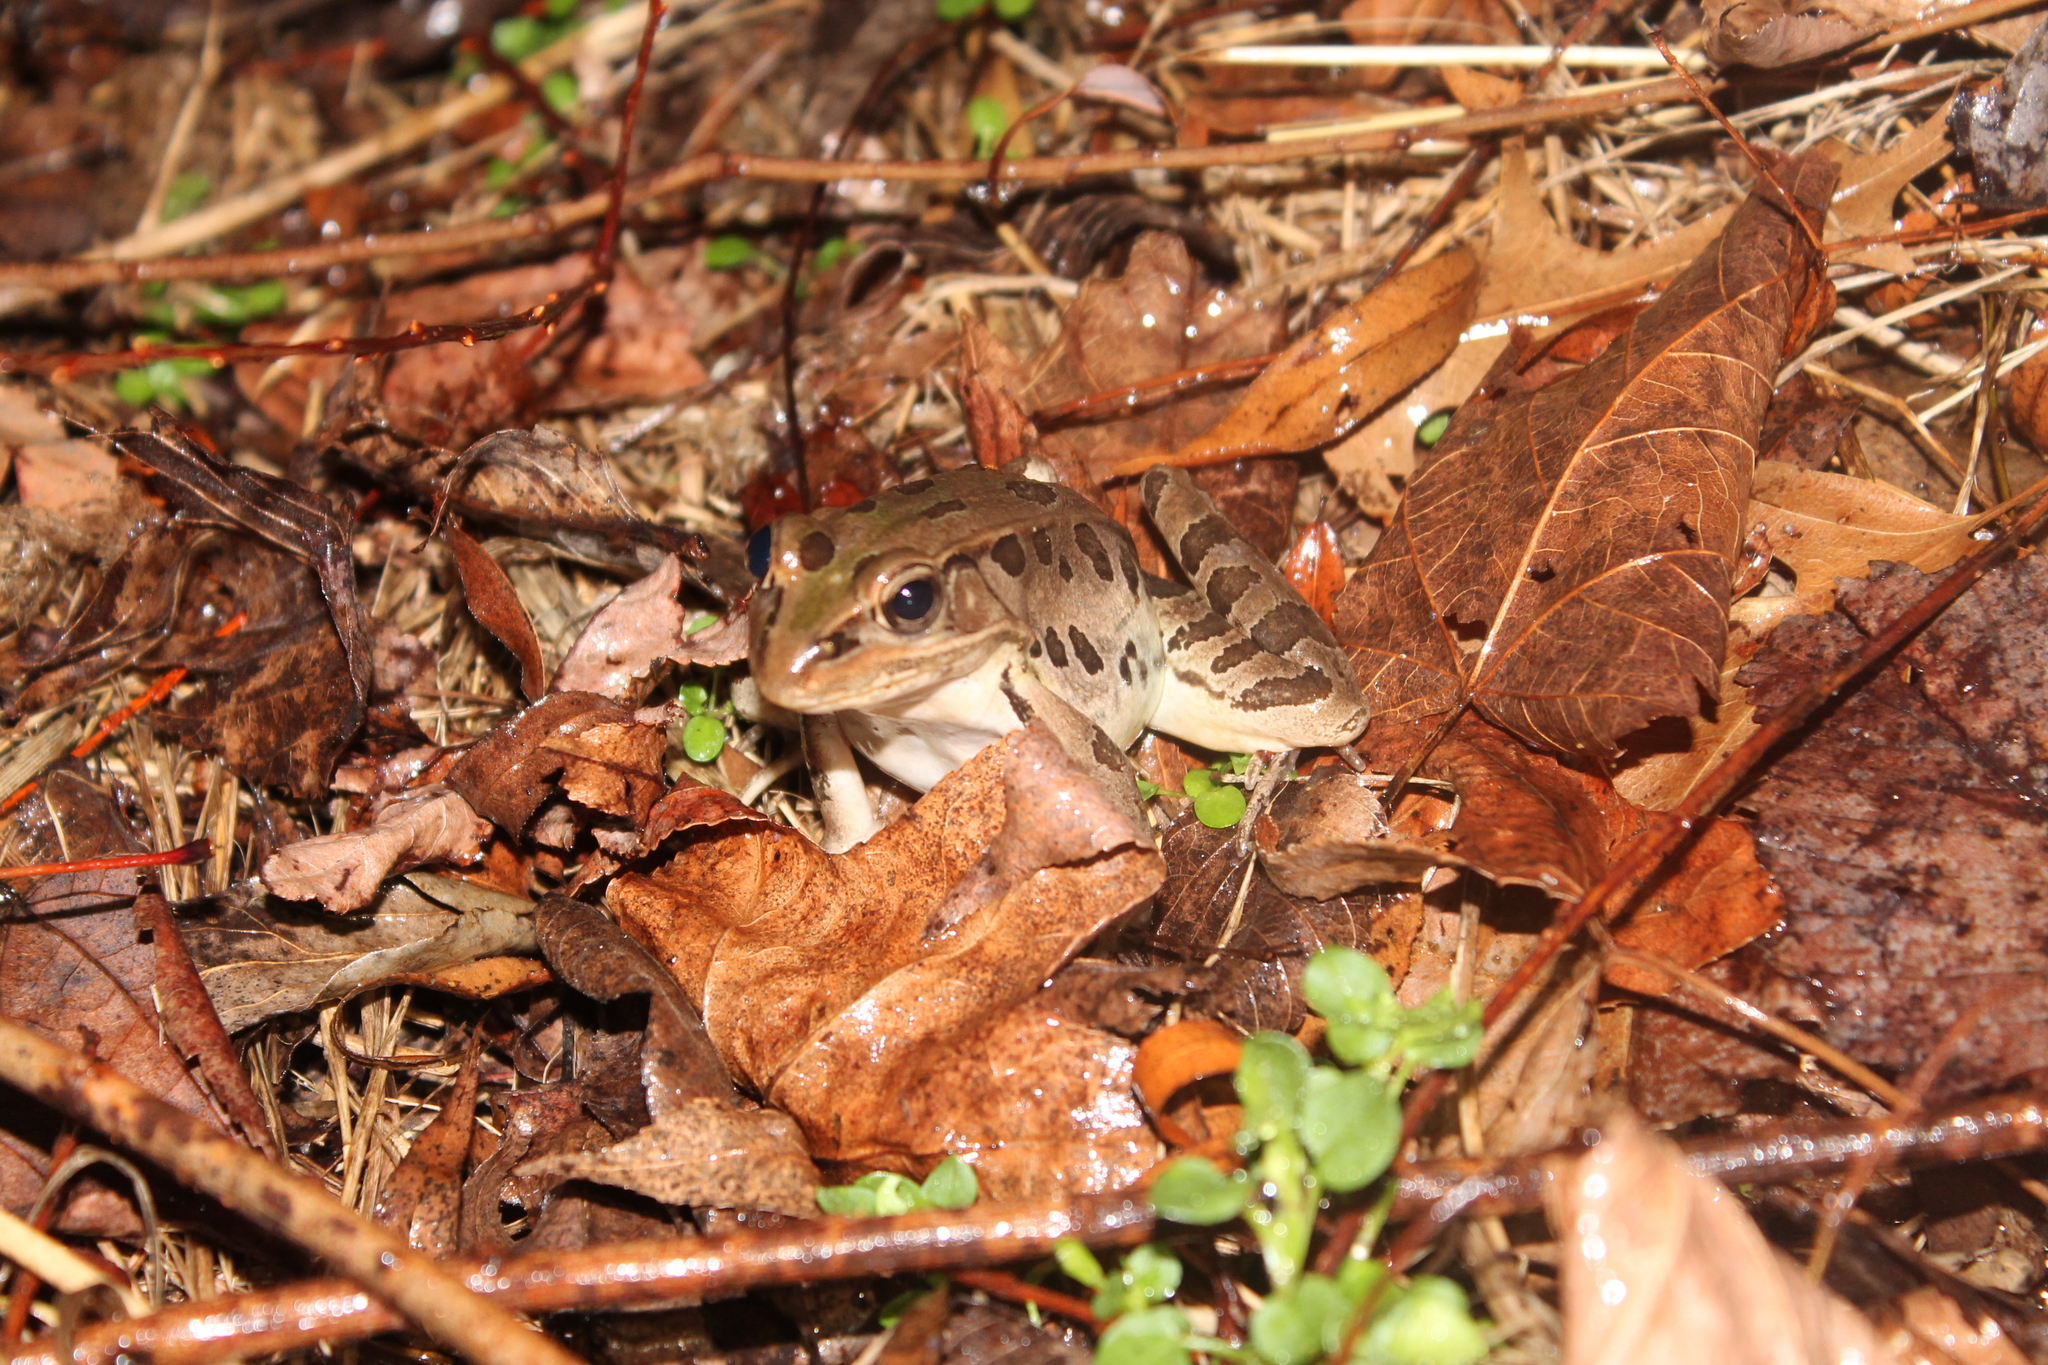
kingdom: Animalia
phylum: Chordata
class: Amphibia
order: Anura
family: Ranidae
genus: Lithobates
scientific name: Lithobates sphenocephalus
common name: Southern leopard frog
